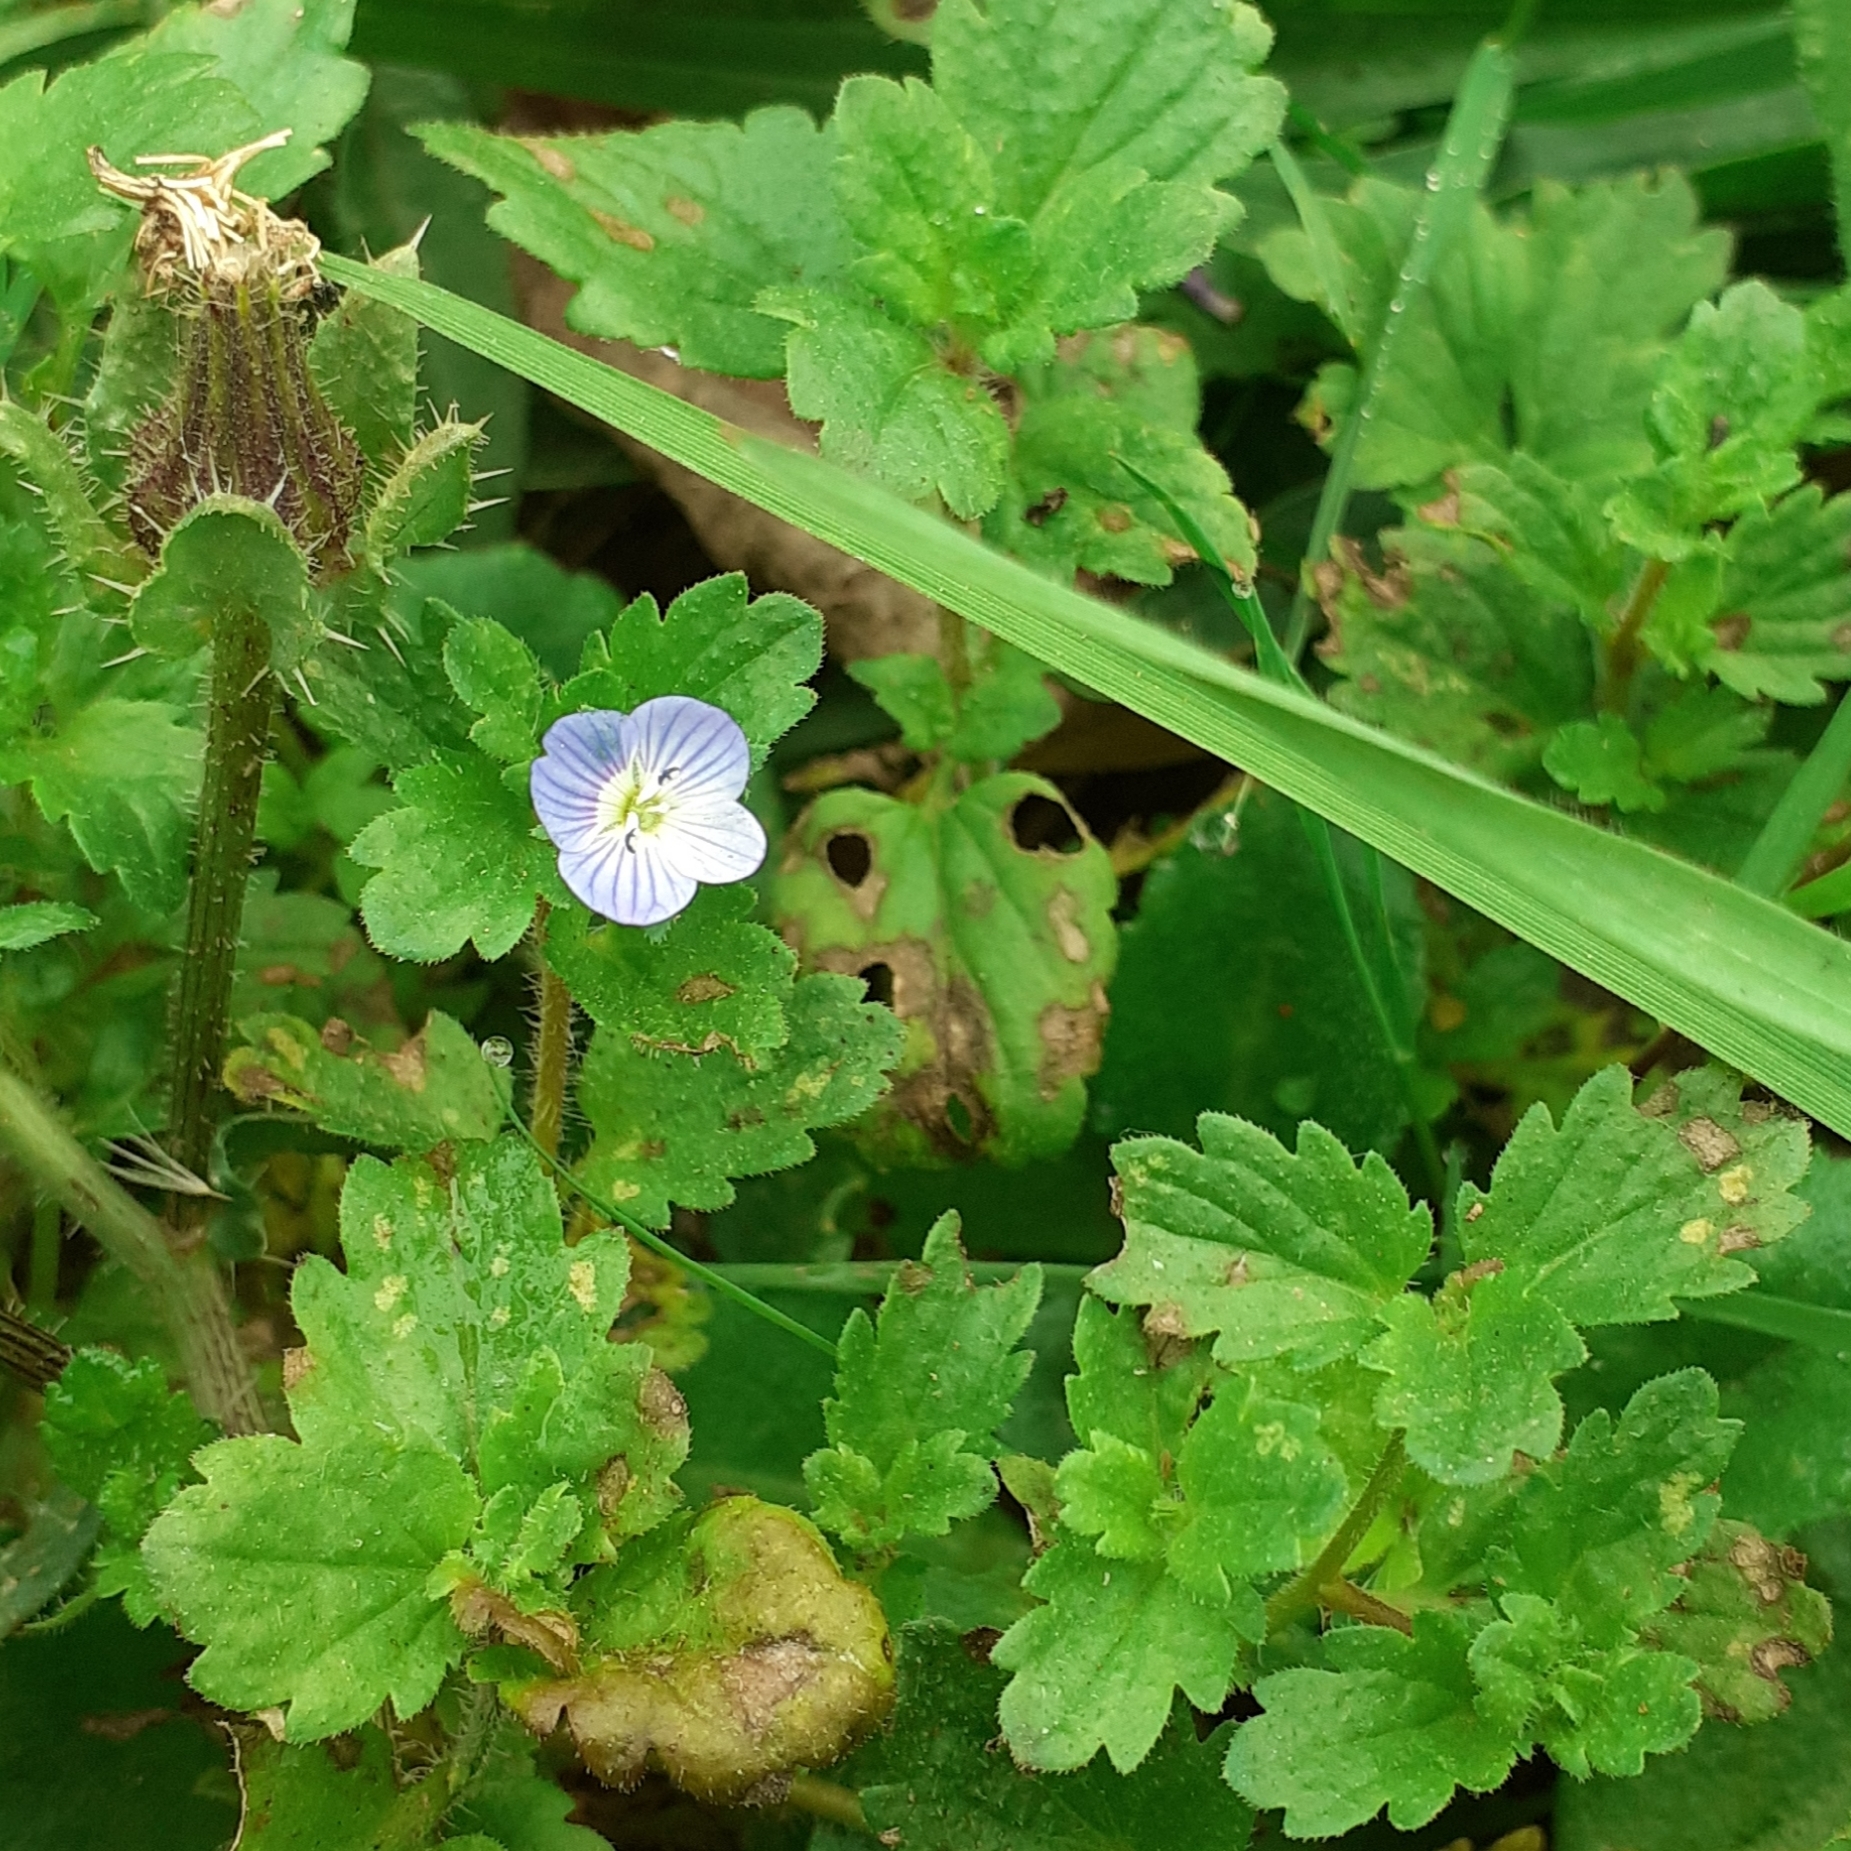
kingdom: Plantae
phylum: Tracheophyta
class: Magnoliopsida
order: Lamiales
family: Plantaginaceae
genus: Veronica
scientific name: Veronica persica
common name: Common field-speedwell
